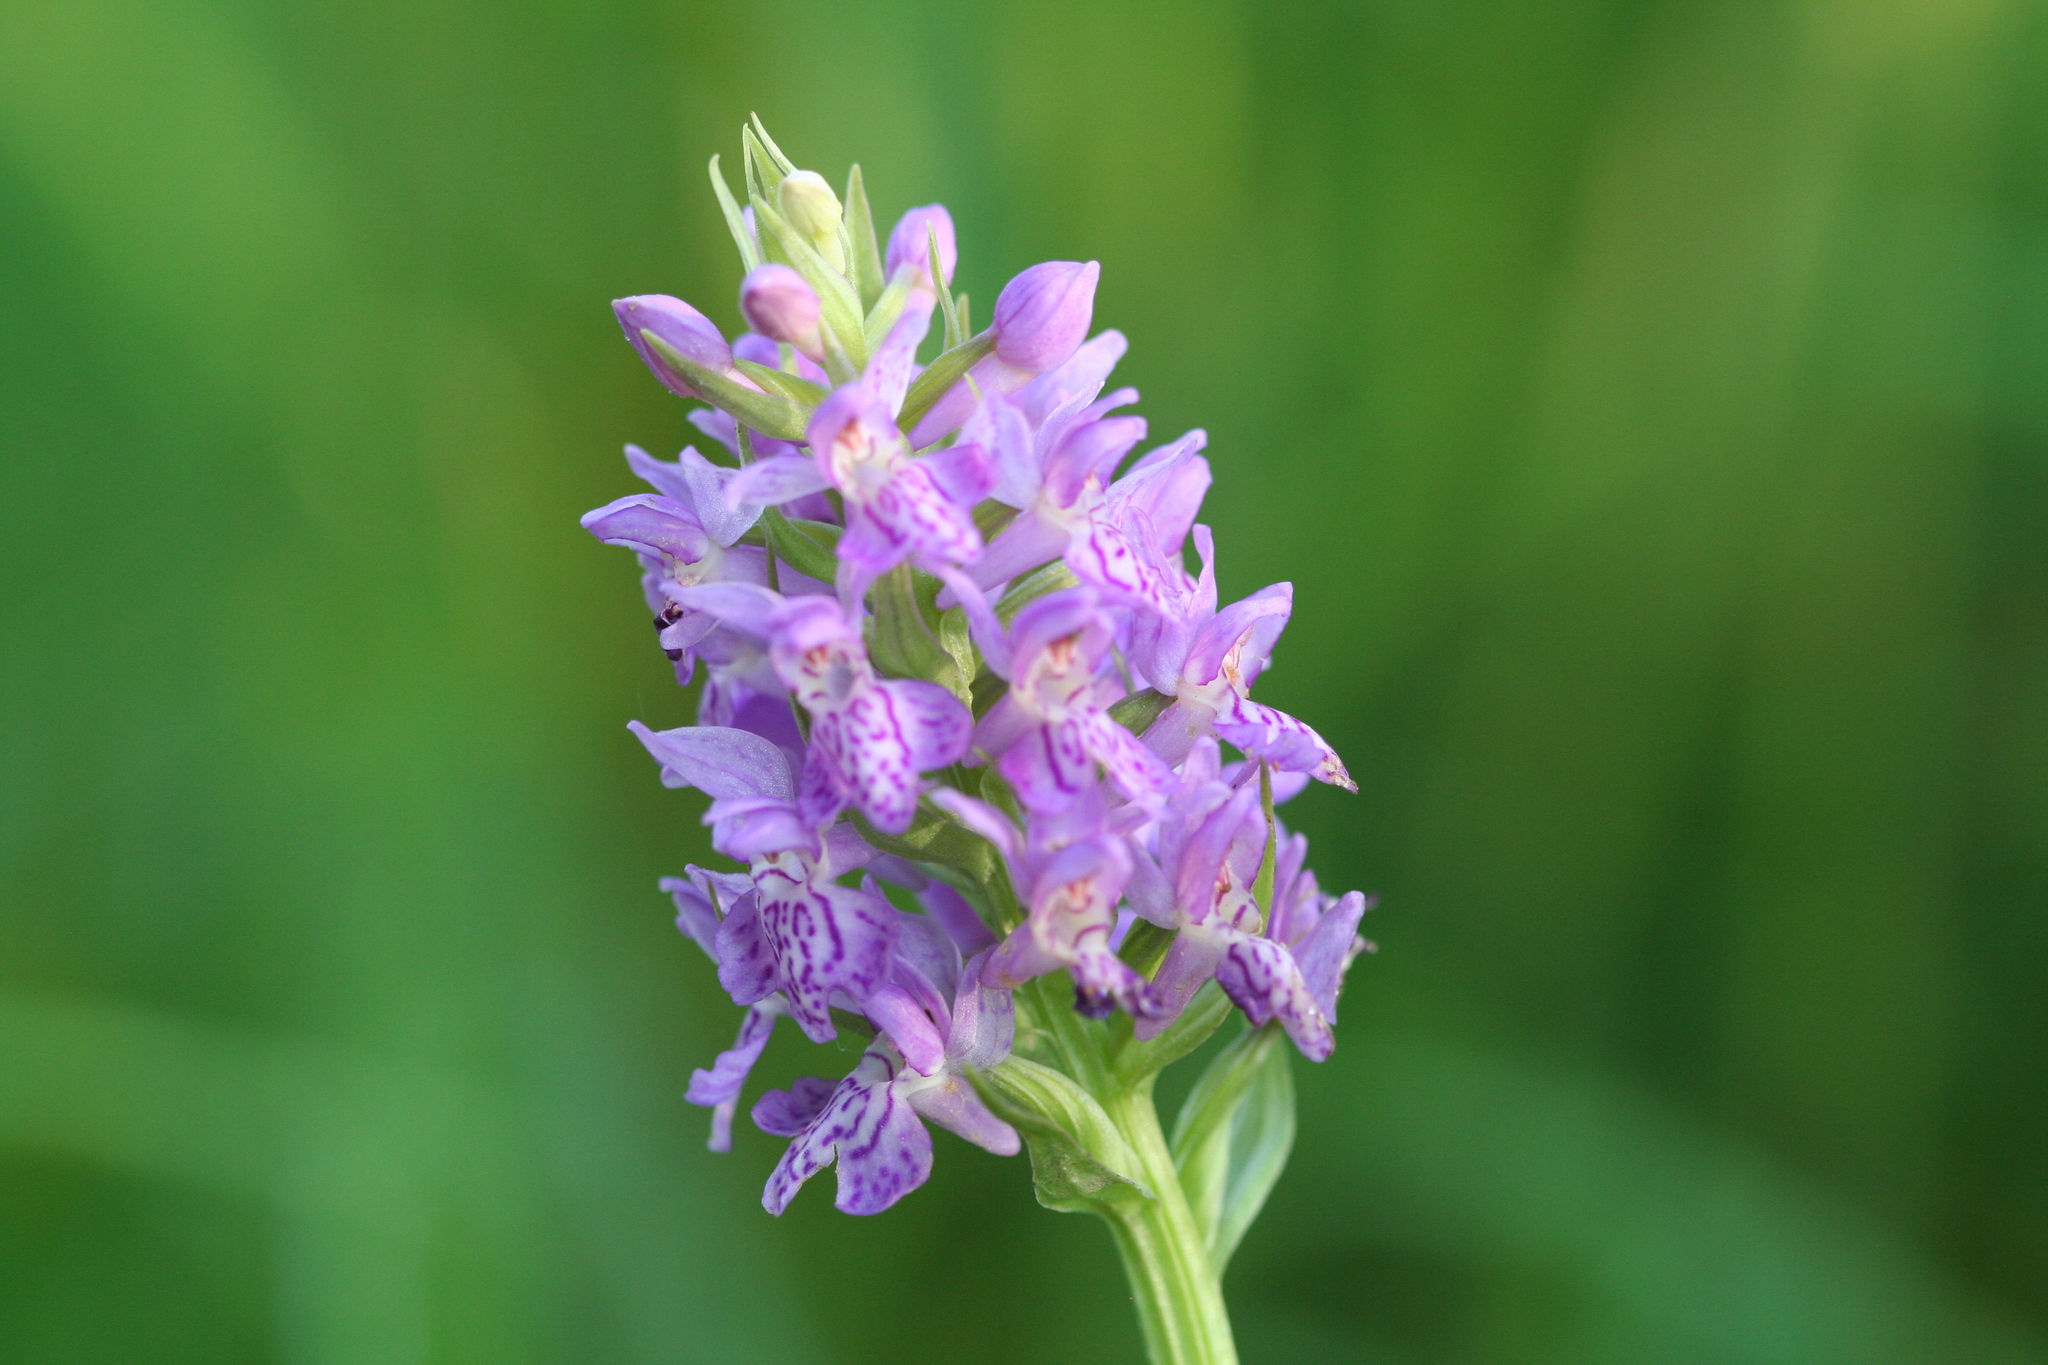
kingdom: Plantae
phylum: Tracheophyta
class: Liliopsida
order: Asparagales
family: Orchidaceae
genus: Dactylorhiza
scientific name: Dactylorhiza majalis
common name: Marsh orchid
